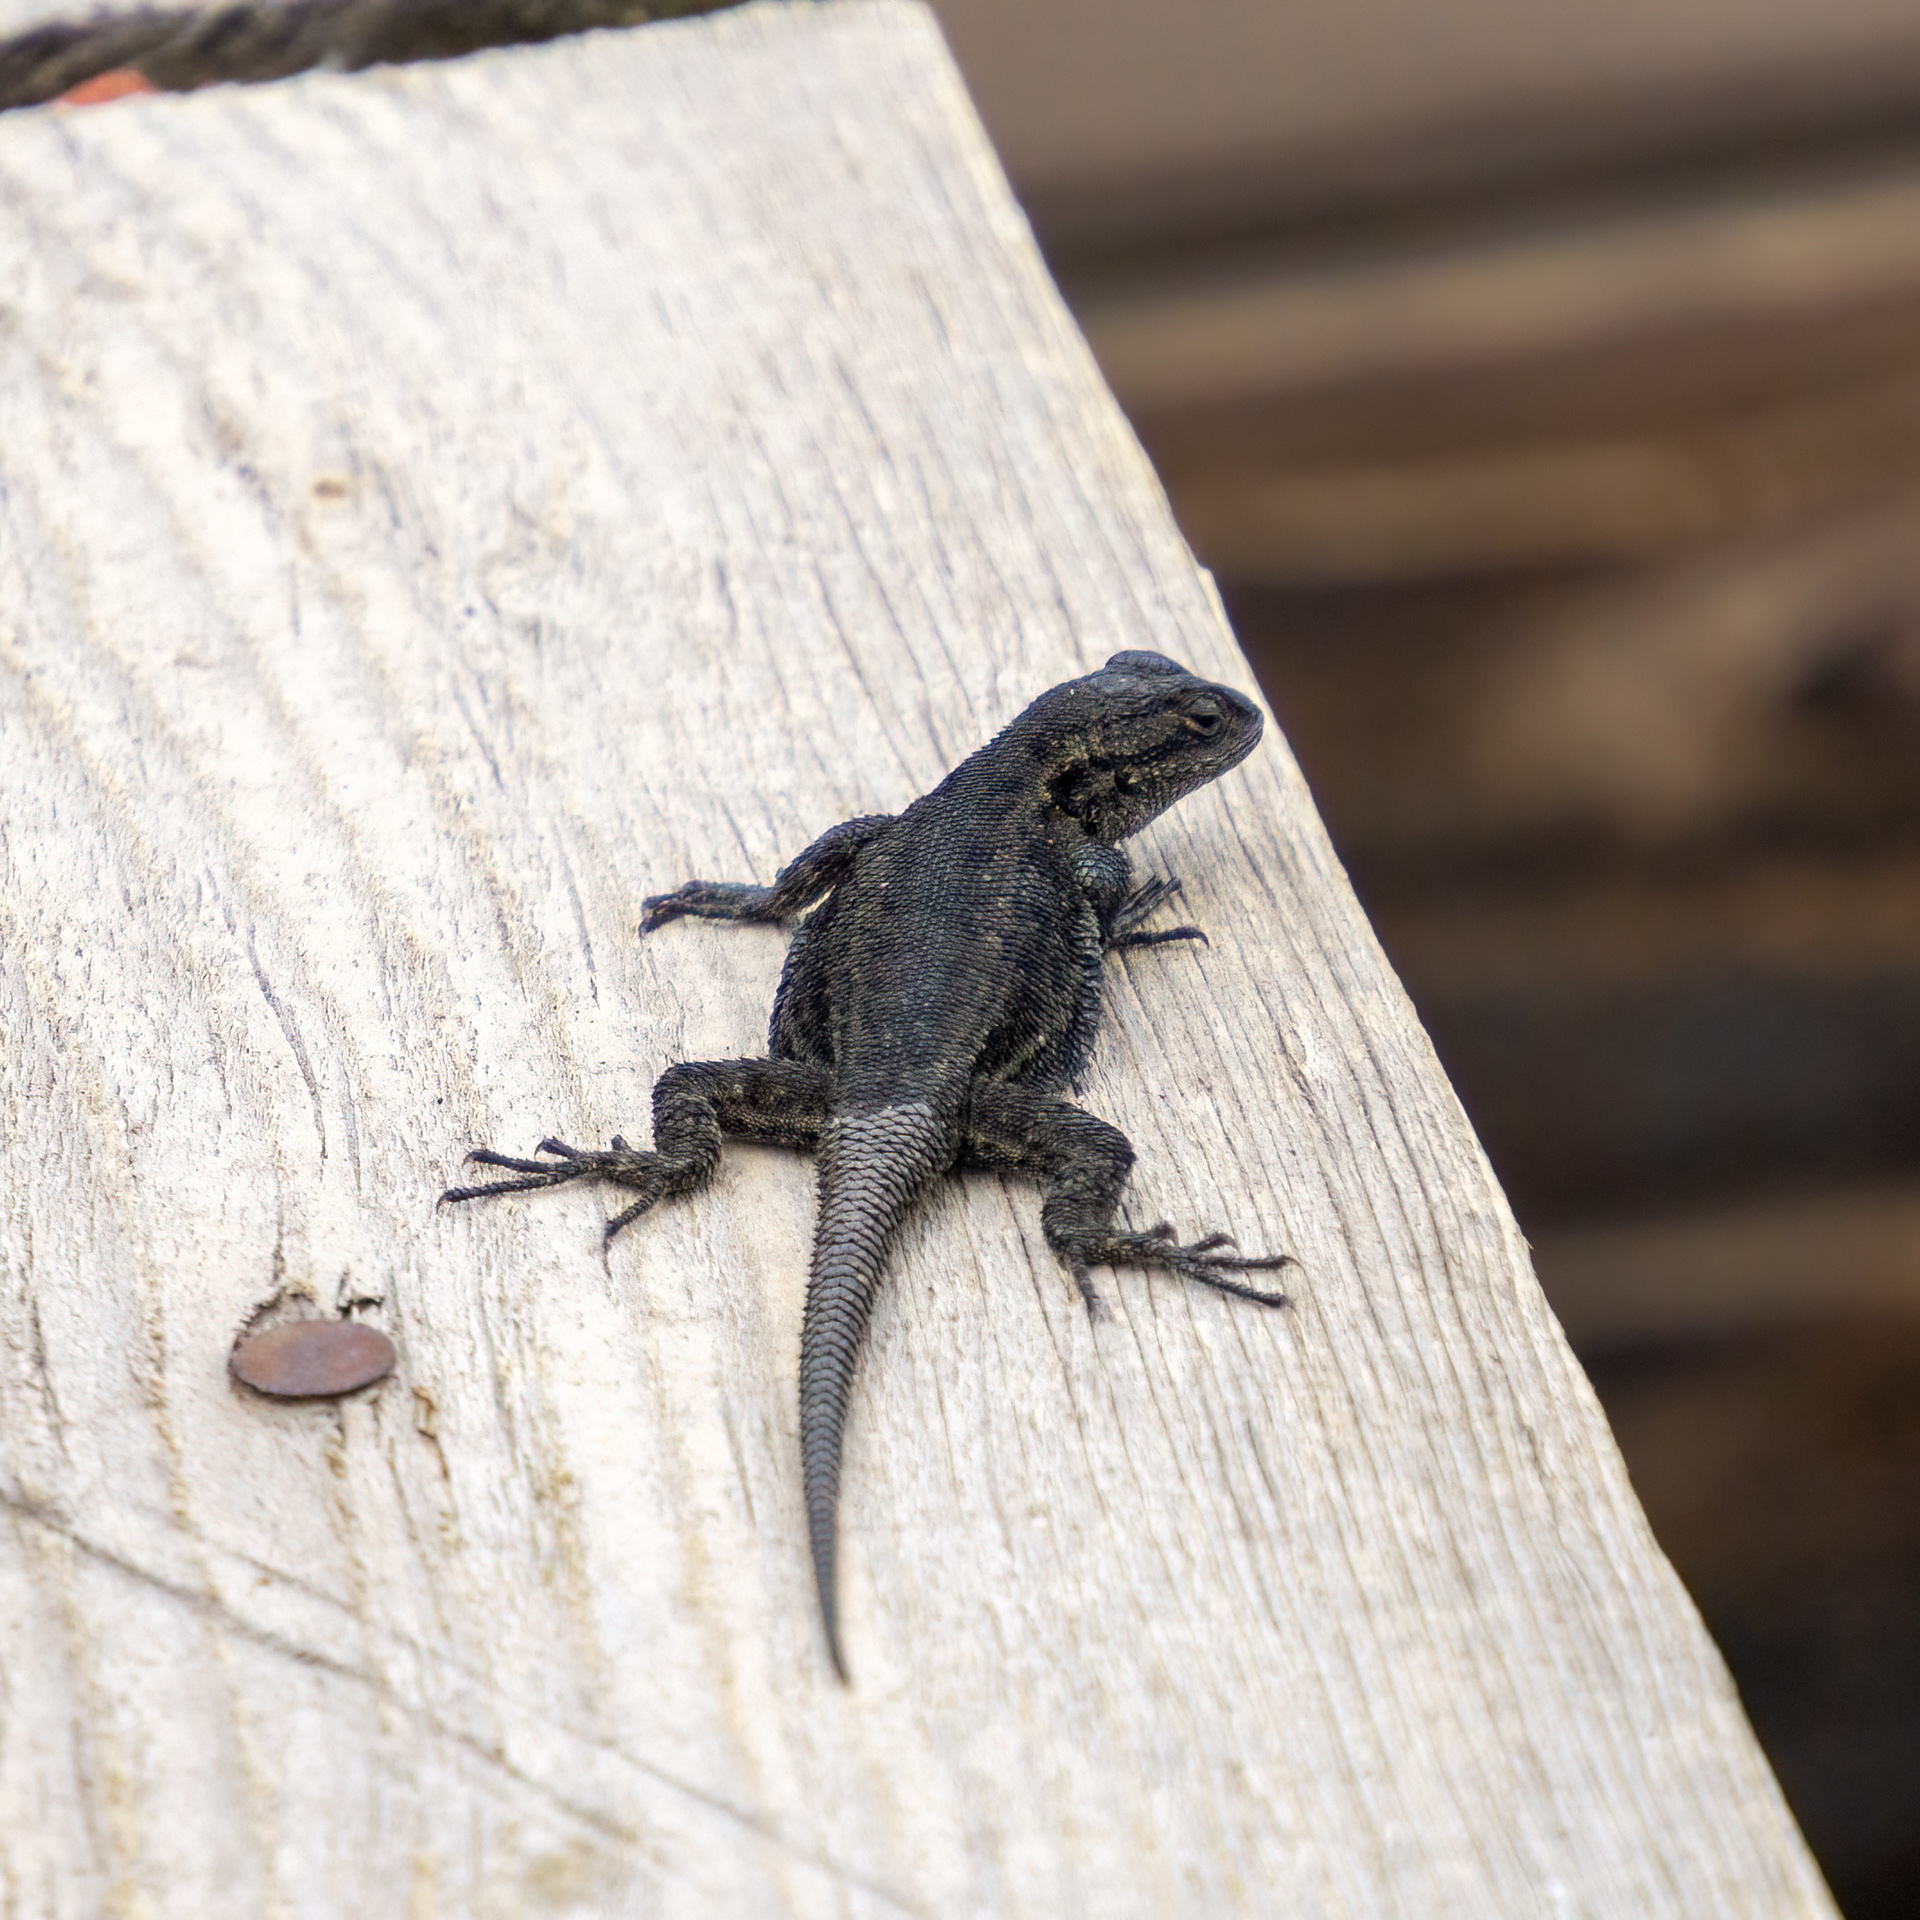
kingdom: Animalia
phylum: Chordata
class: Squamata
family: Phrynosomatidae
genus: Sceloporus
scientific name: Sceloporus anahuacus
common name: Anahuacan bunchgrass lizard
